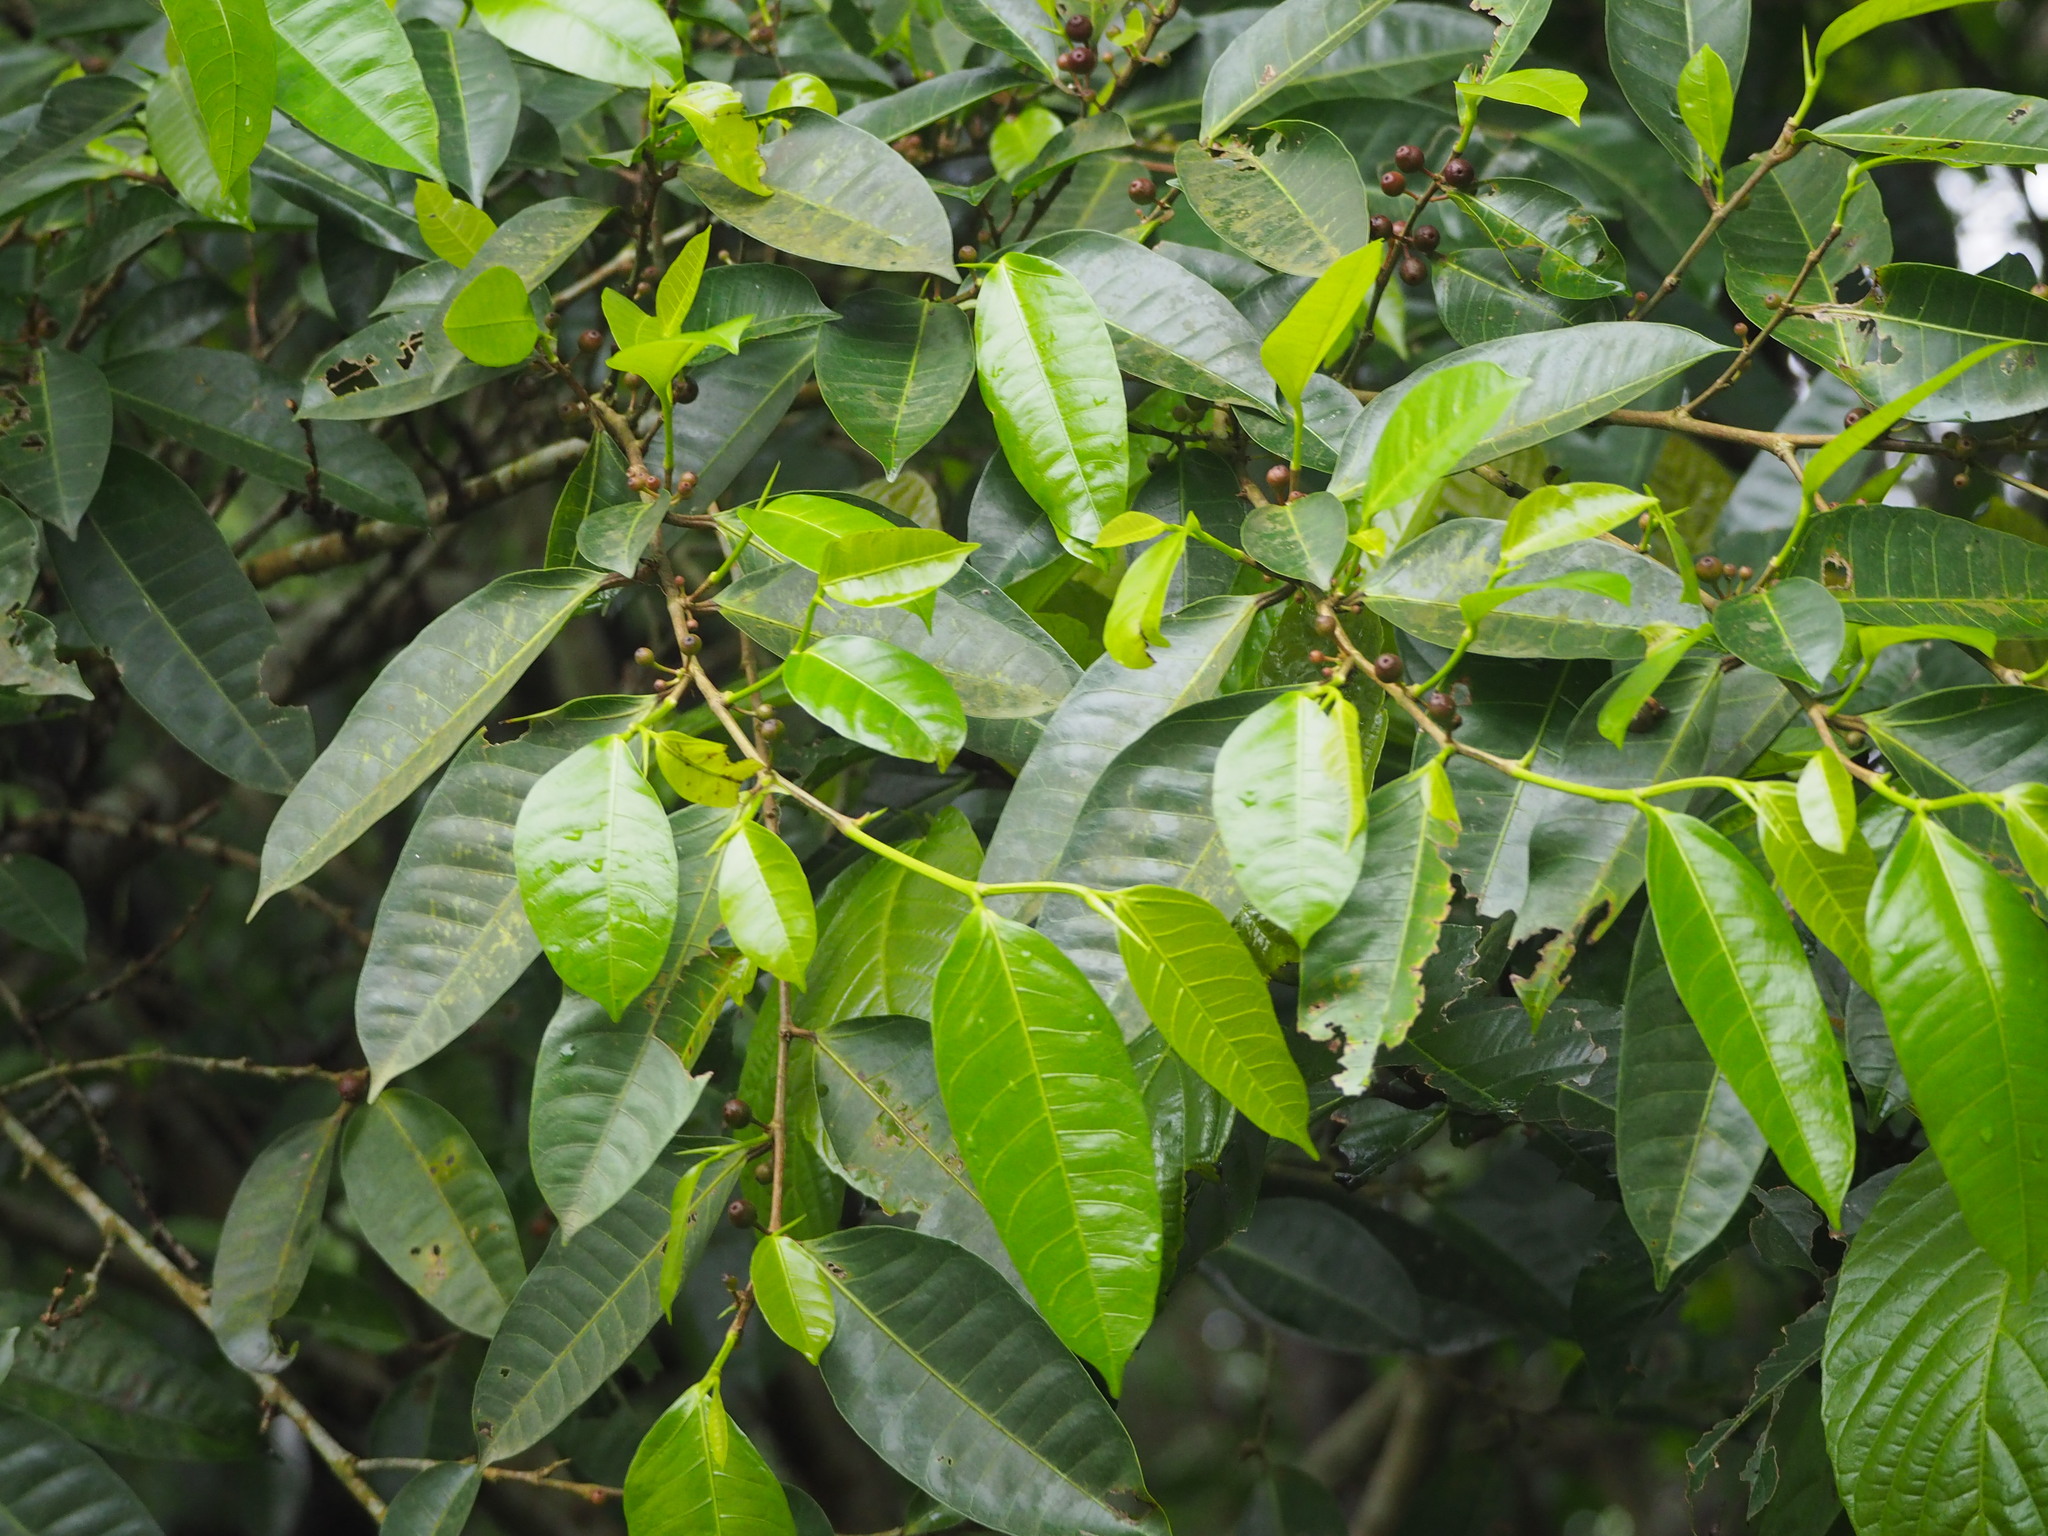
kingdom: Plantae
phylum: Tracheophyta
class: Magnoliopsida
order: Rosales
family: Moraceae
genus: Ficus
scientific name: Ficus virgata
